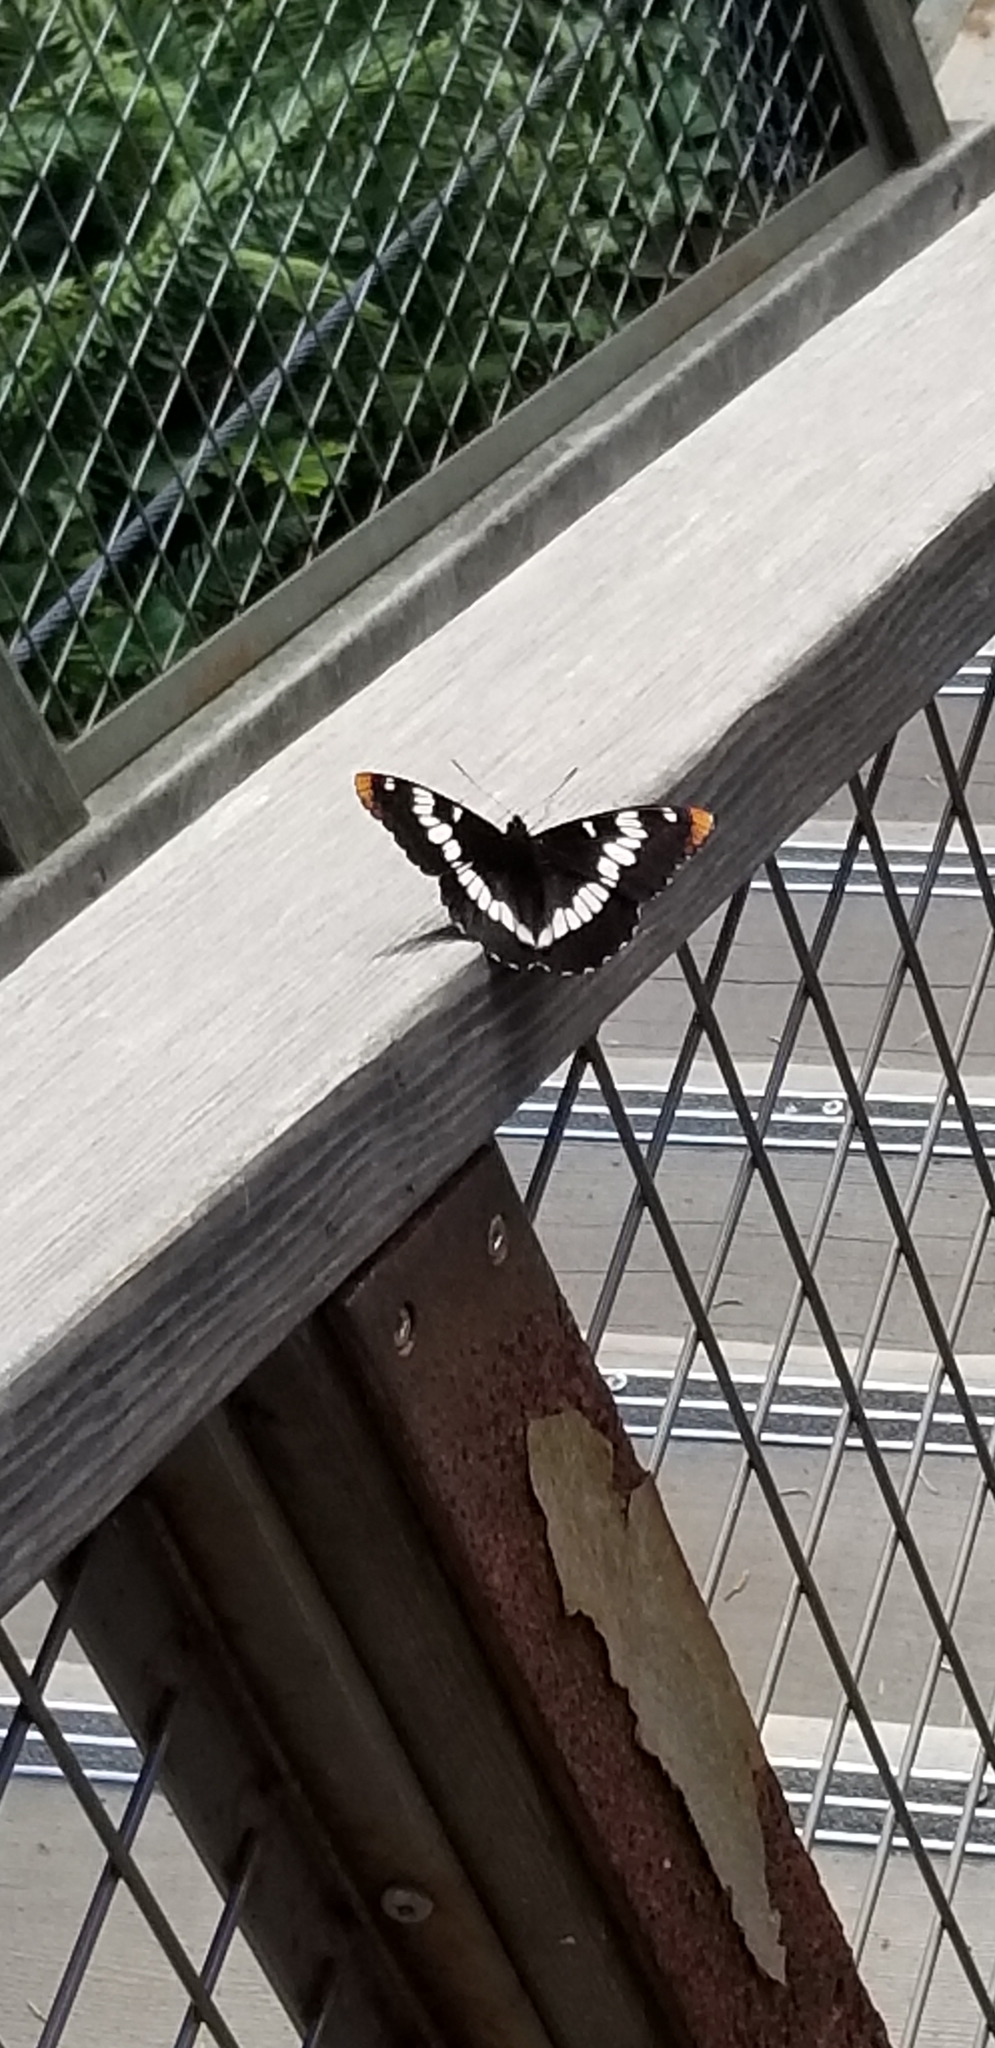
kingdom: Animalia
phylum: Arthropoda
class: Insecta
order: Lepidoptera
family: Nymphalidae
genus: Limenitis
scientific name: Limenitis lorquini
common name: Lorquin's admiral
